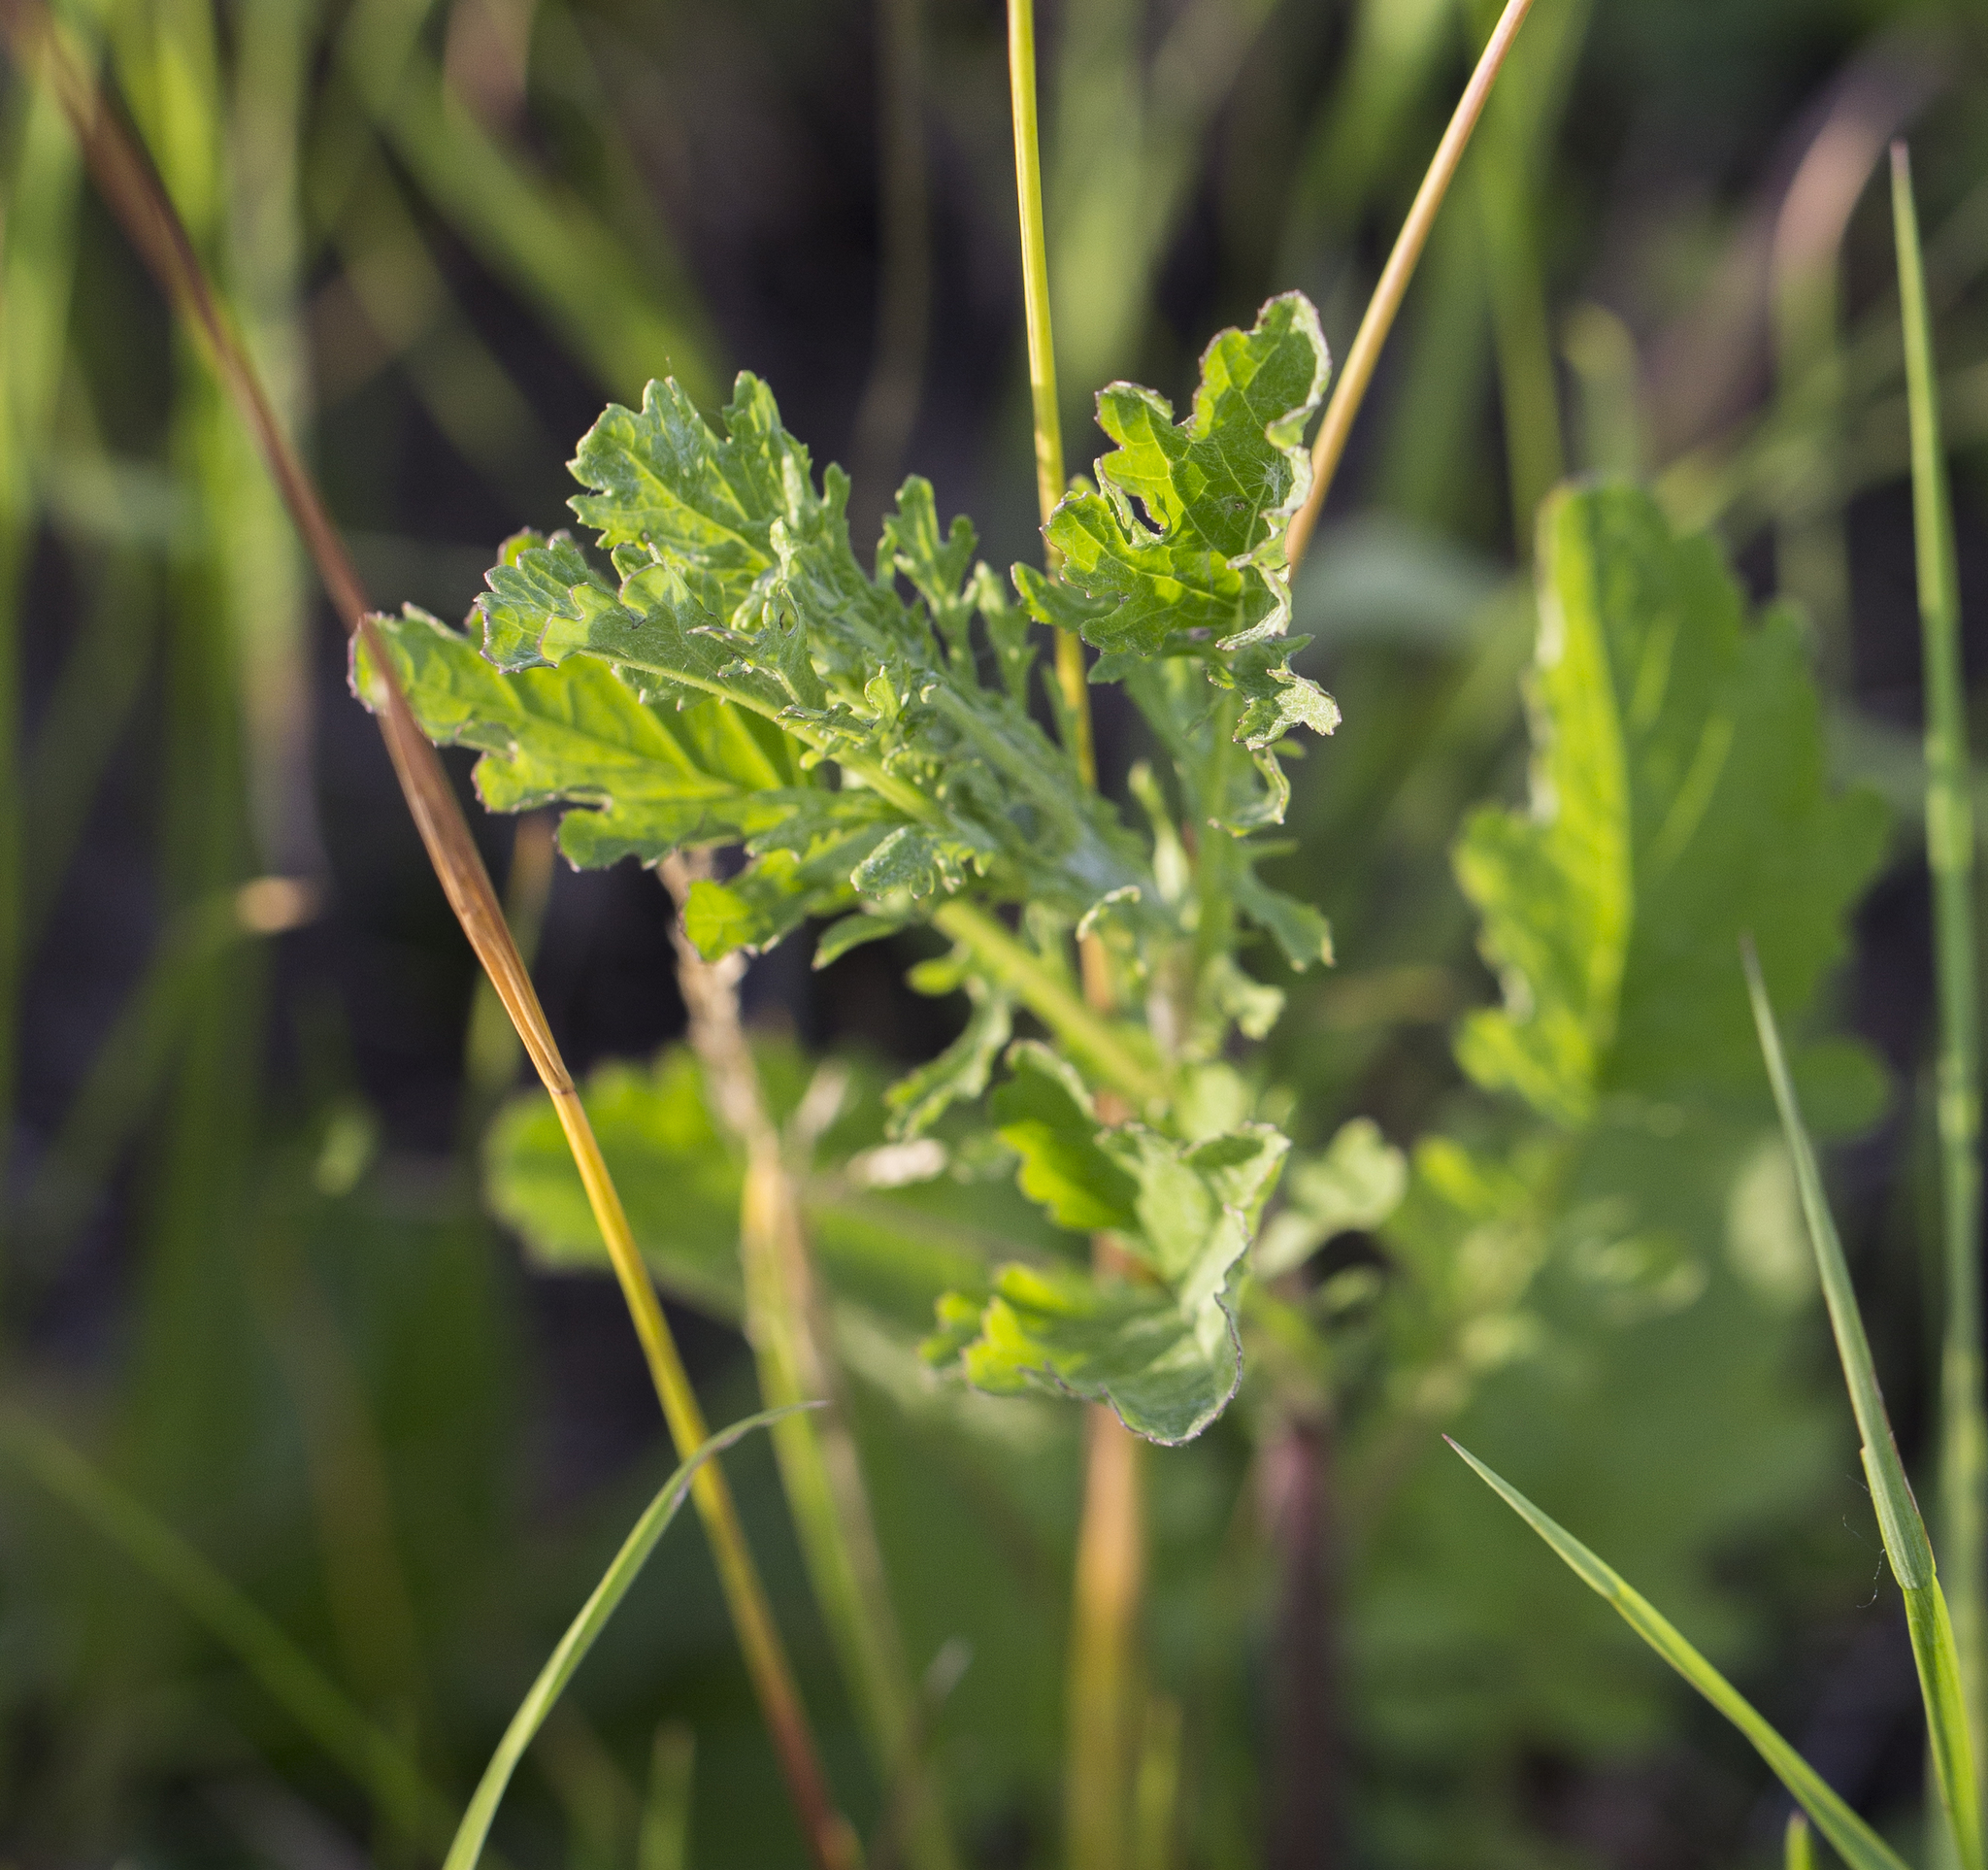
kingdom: Plantae
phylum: Tracheophyta
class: Magnoliopsida
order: Asterales
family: Asteraceae
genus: Jacobaea
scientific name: Jacobaea vulgaris
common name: Stinking willie
